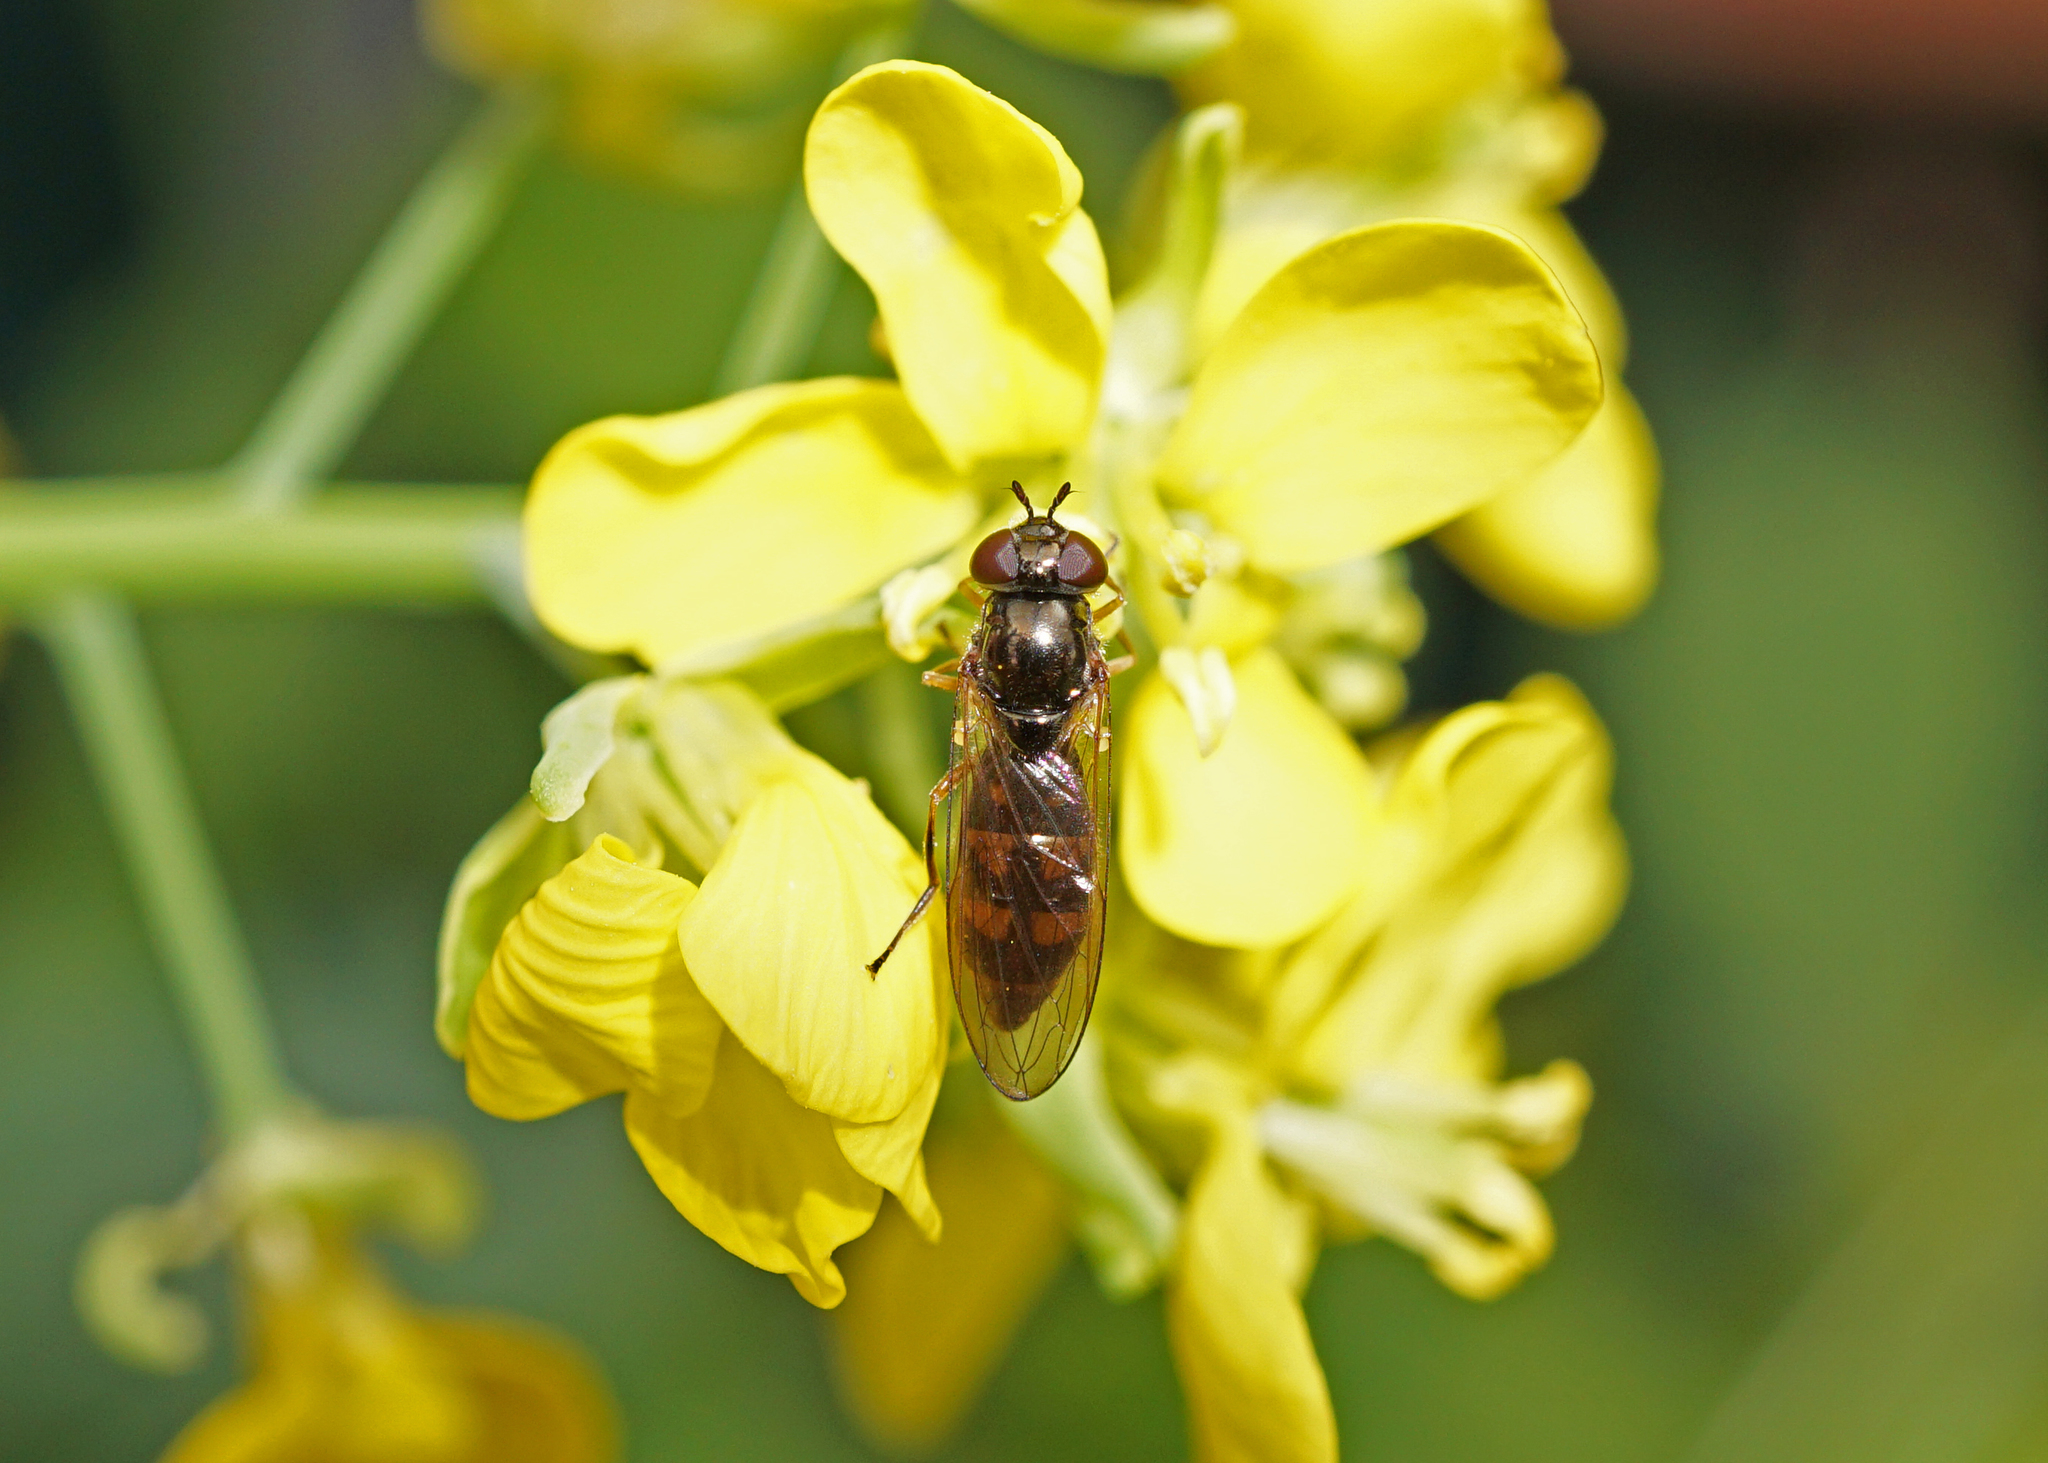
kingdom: Animalia
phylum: Arthropoda
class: Insecta
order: Diptera
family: Syrphidae
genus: Melanostoma
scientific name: Melanostoma mellina
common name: Hover fly
